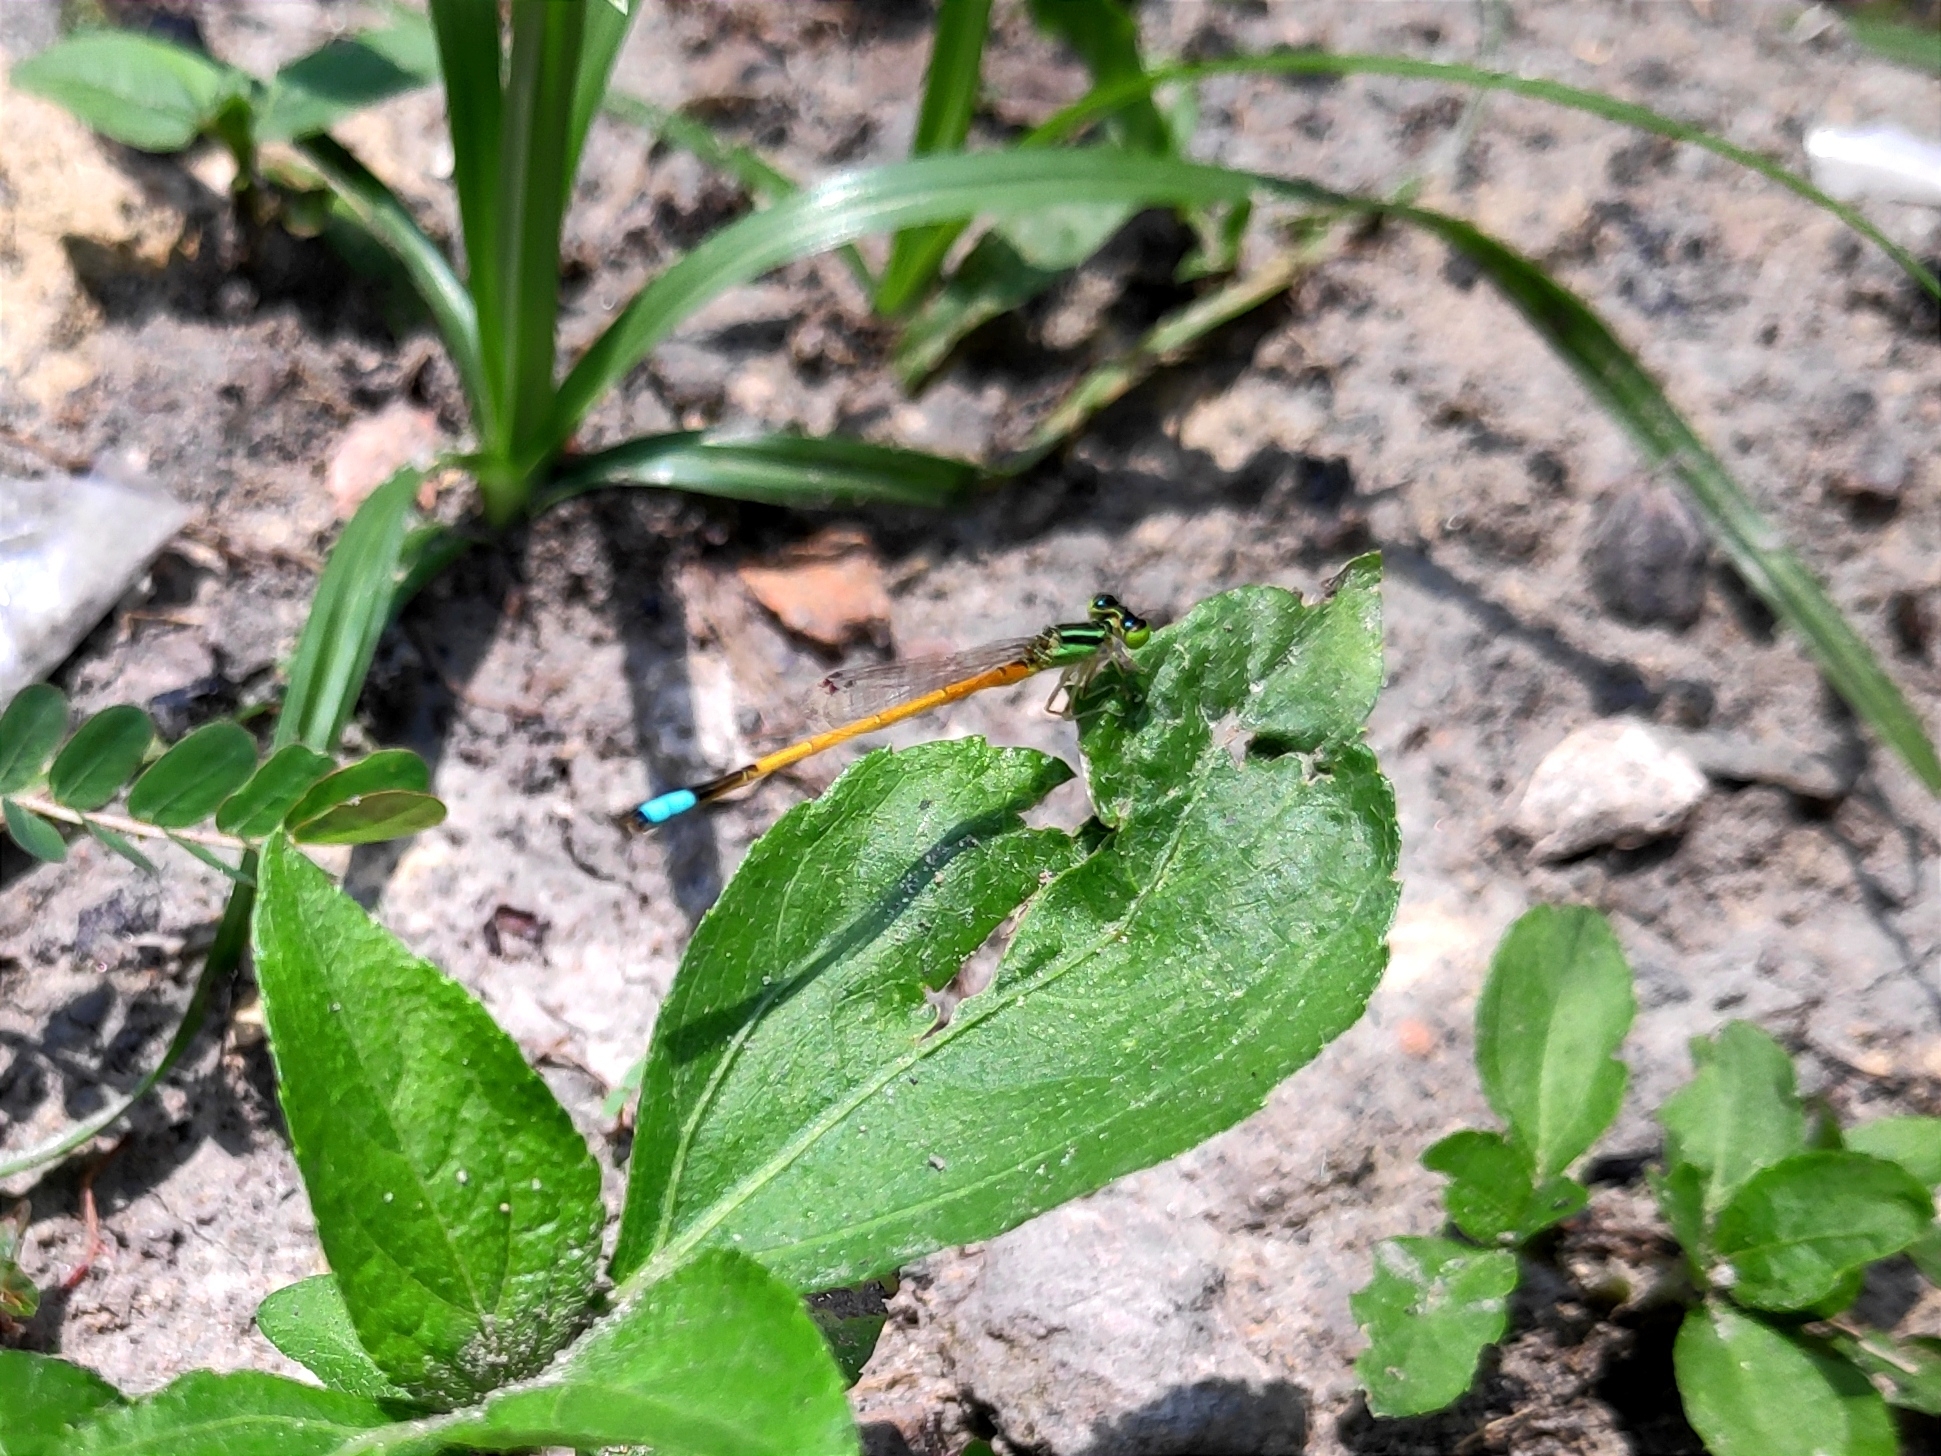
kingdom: Animalia
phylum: Arthropoda
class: Insecta
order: Odonata
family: Coenagrionidae
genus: Ischnura
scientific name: Ischnura rubilio
